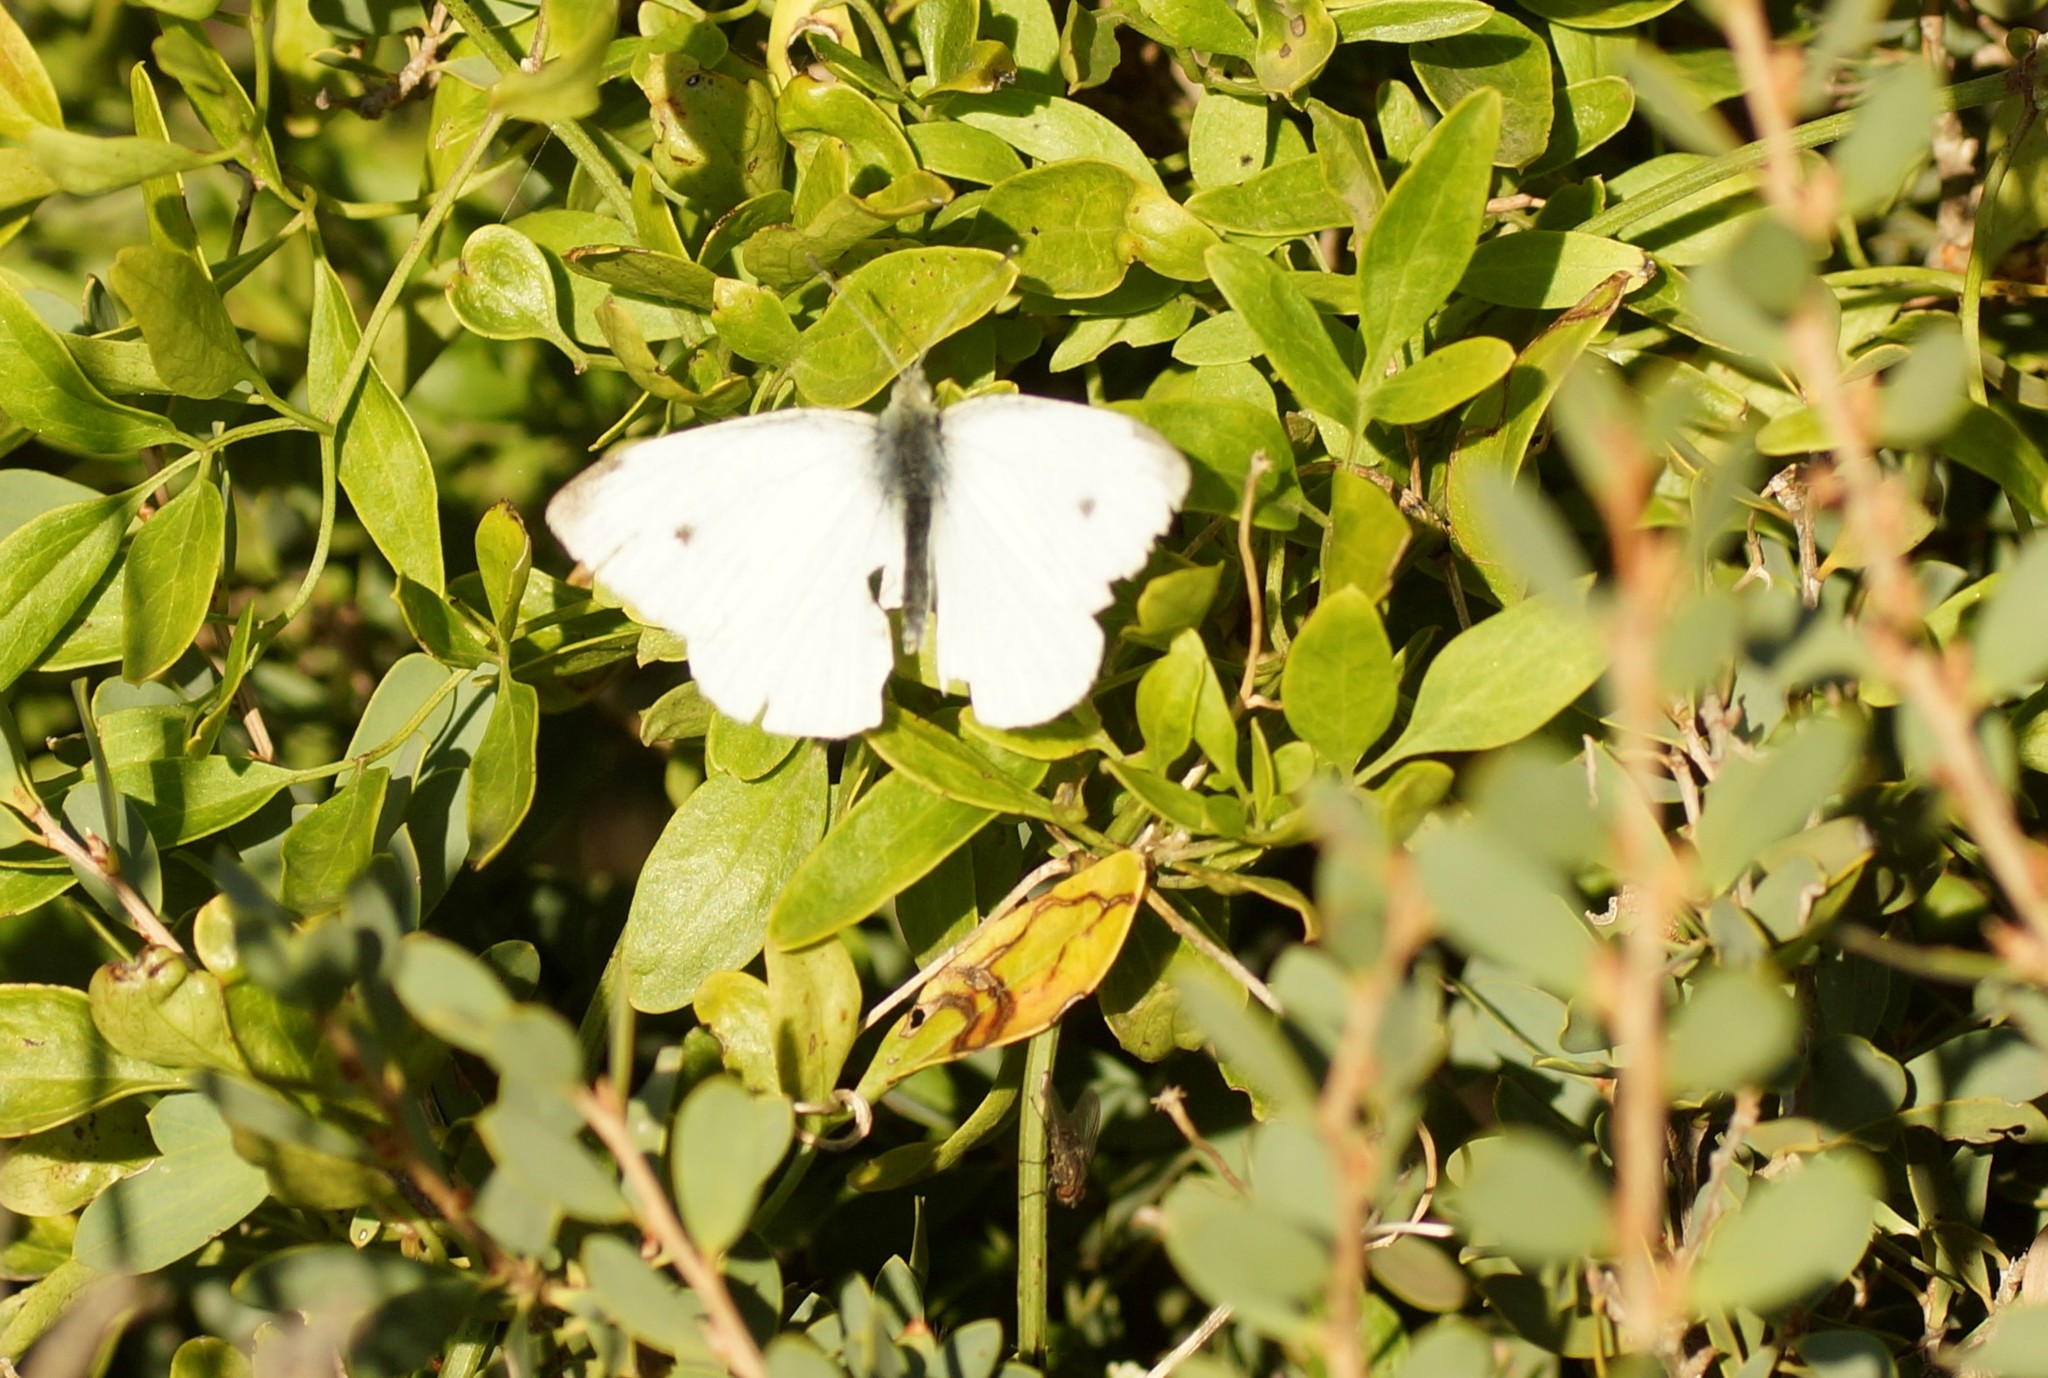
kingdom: Animalia
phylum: Arthropoda
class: Insecta
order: Lepidoptera
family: Pieridae
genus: Pieris
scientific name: Pieris rapae
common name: Small white
